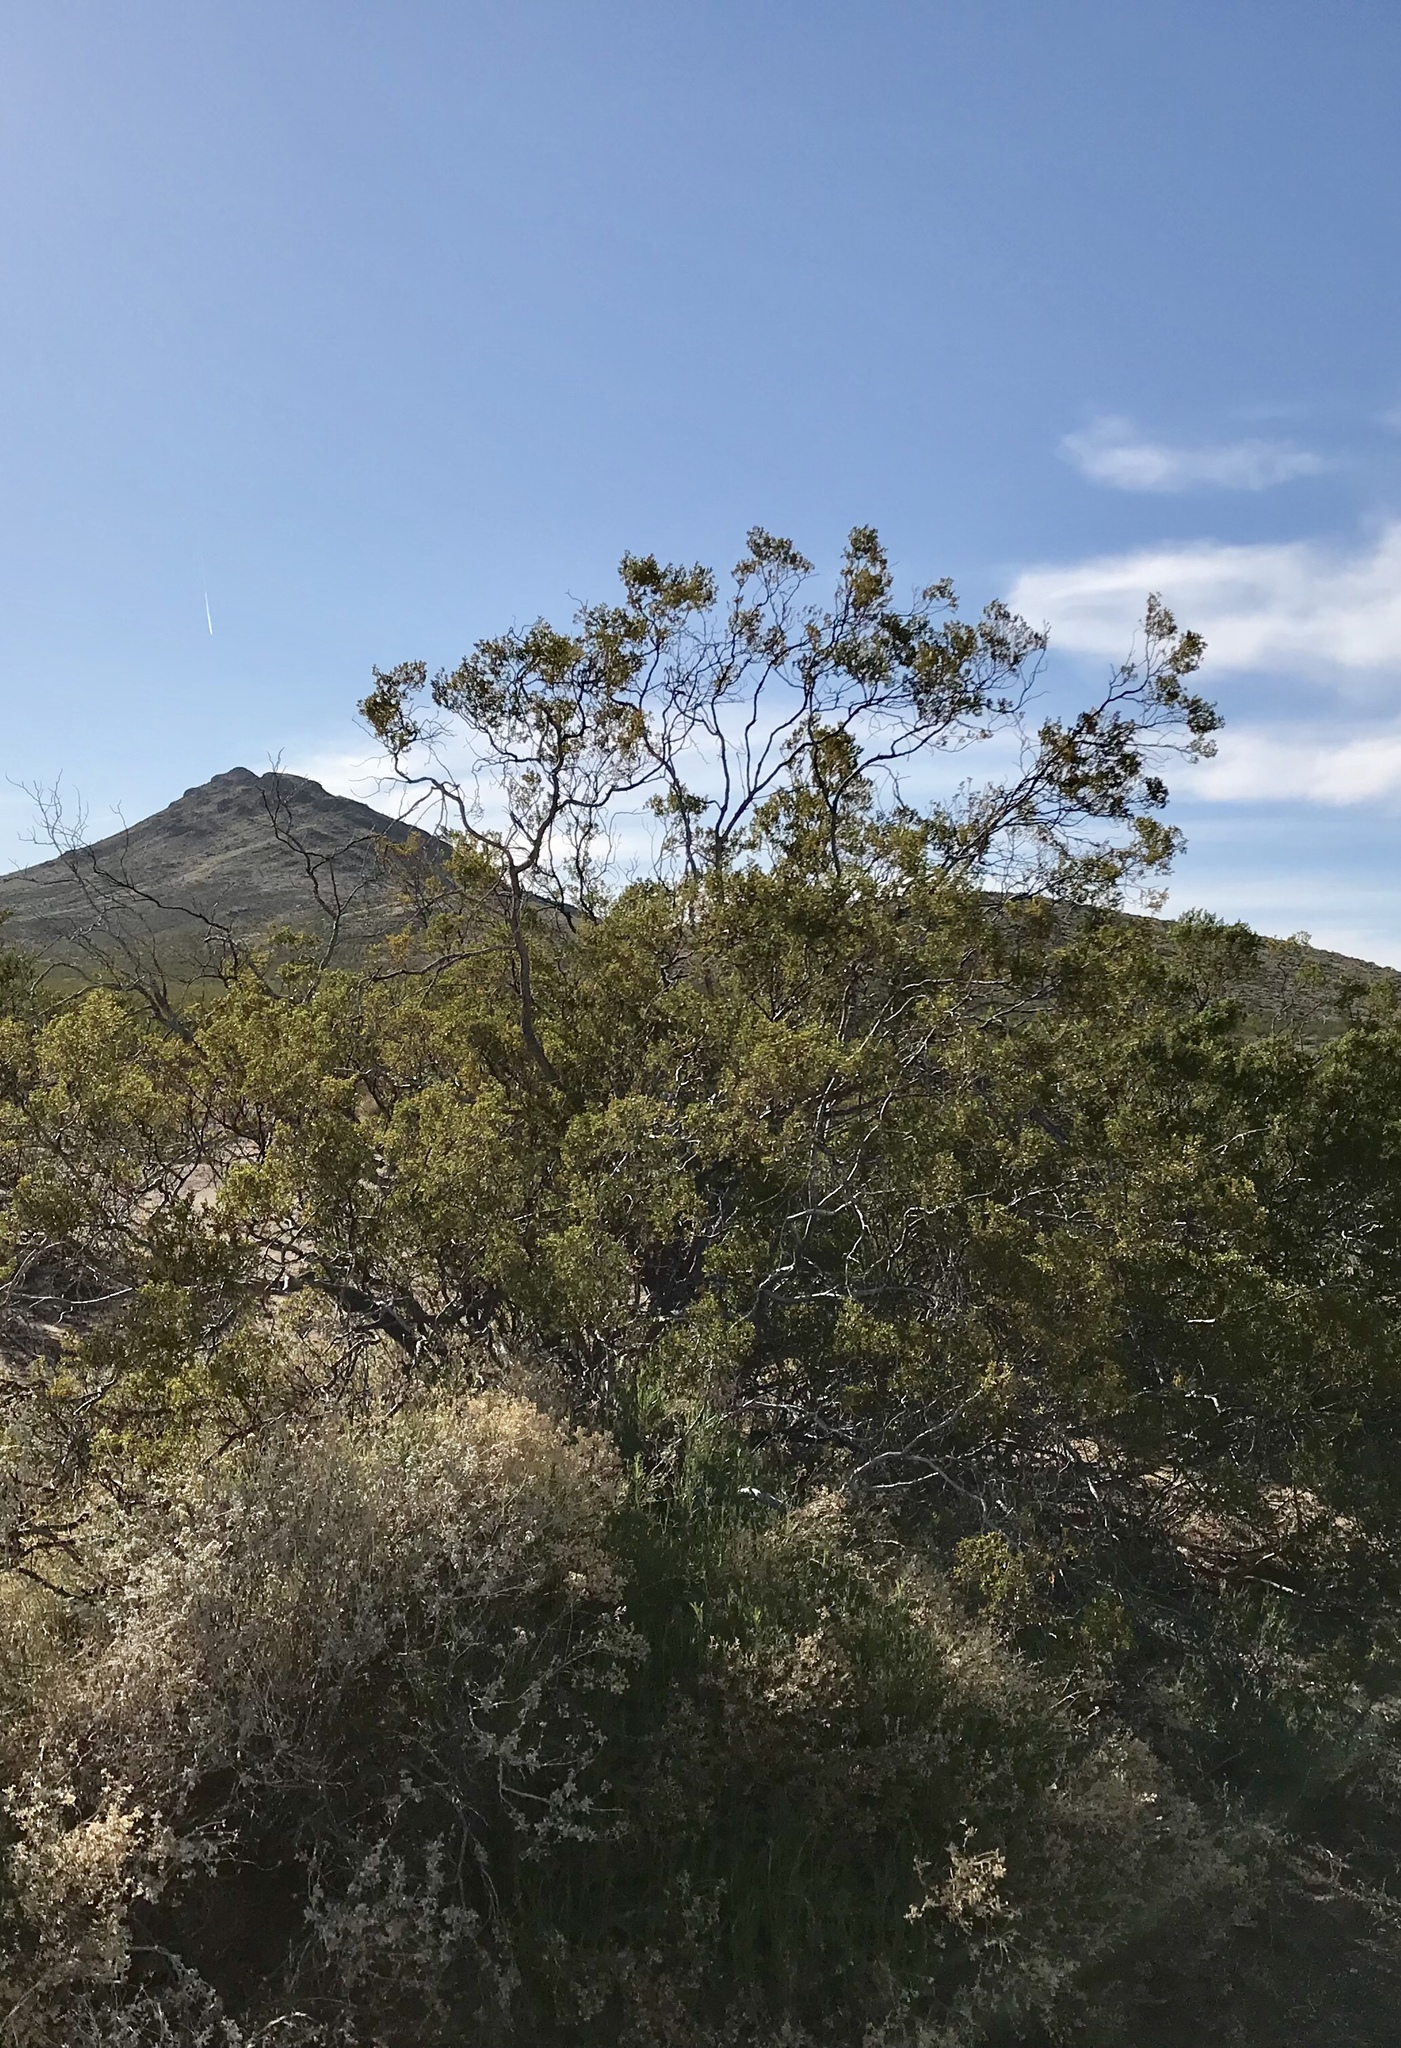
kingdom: Plantae
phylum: Tracheophyta
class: Magnoliopsida
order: Zygophyllales
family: Zygophyllaceae
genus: Larrea
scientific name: Larrea tridentata
